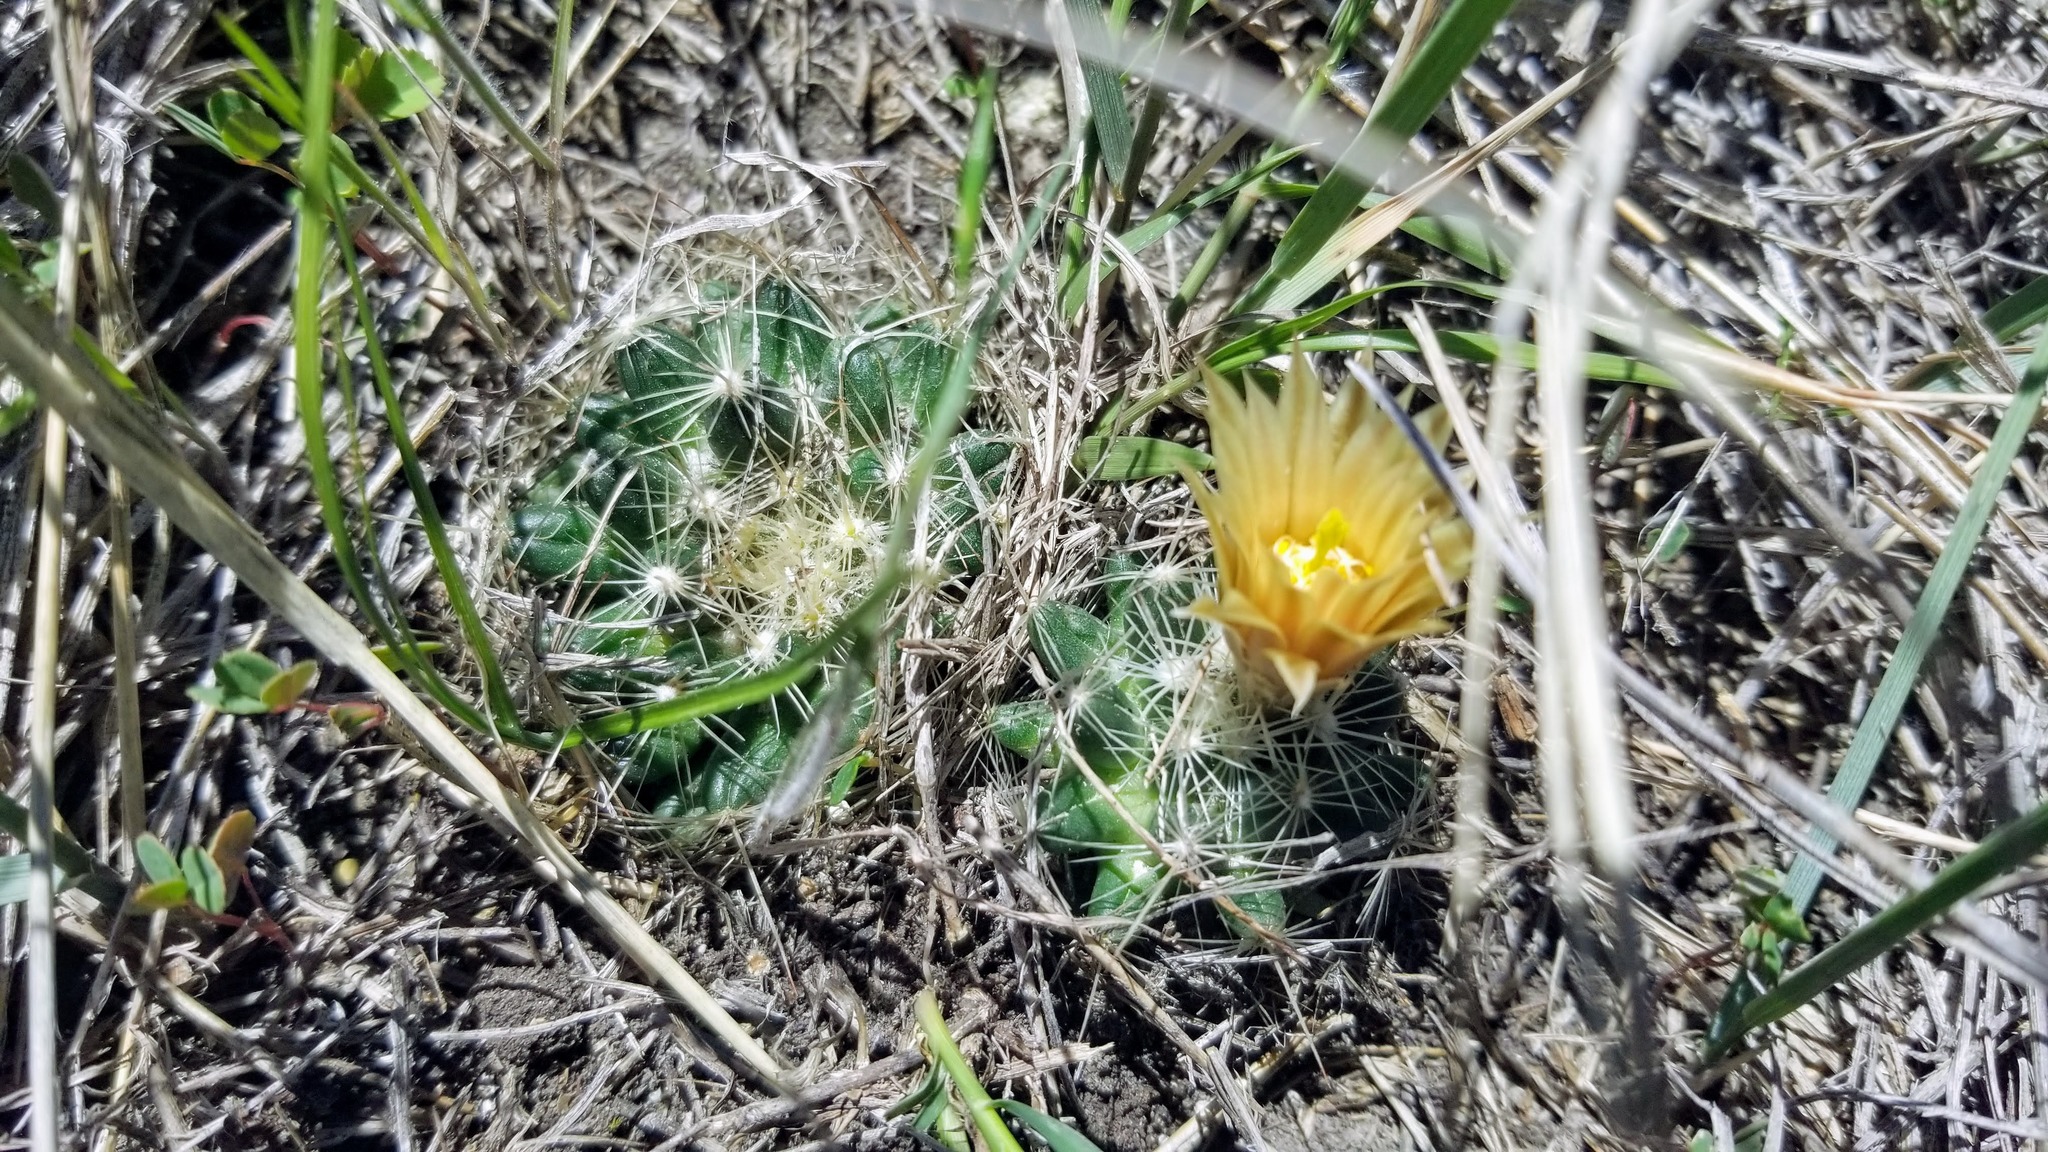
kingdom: Plantae
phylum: Tracheophyta
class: Magnoliopsida
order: Caryophyllales
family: Cactaceae
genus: Pelecyphora
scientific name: Pelecyphora missouriensis
